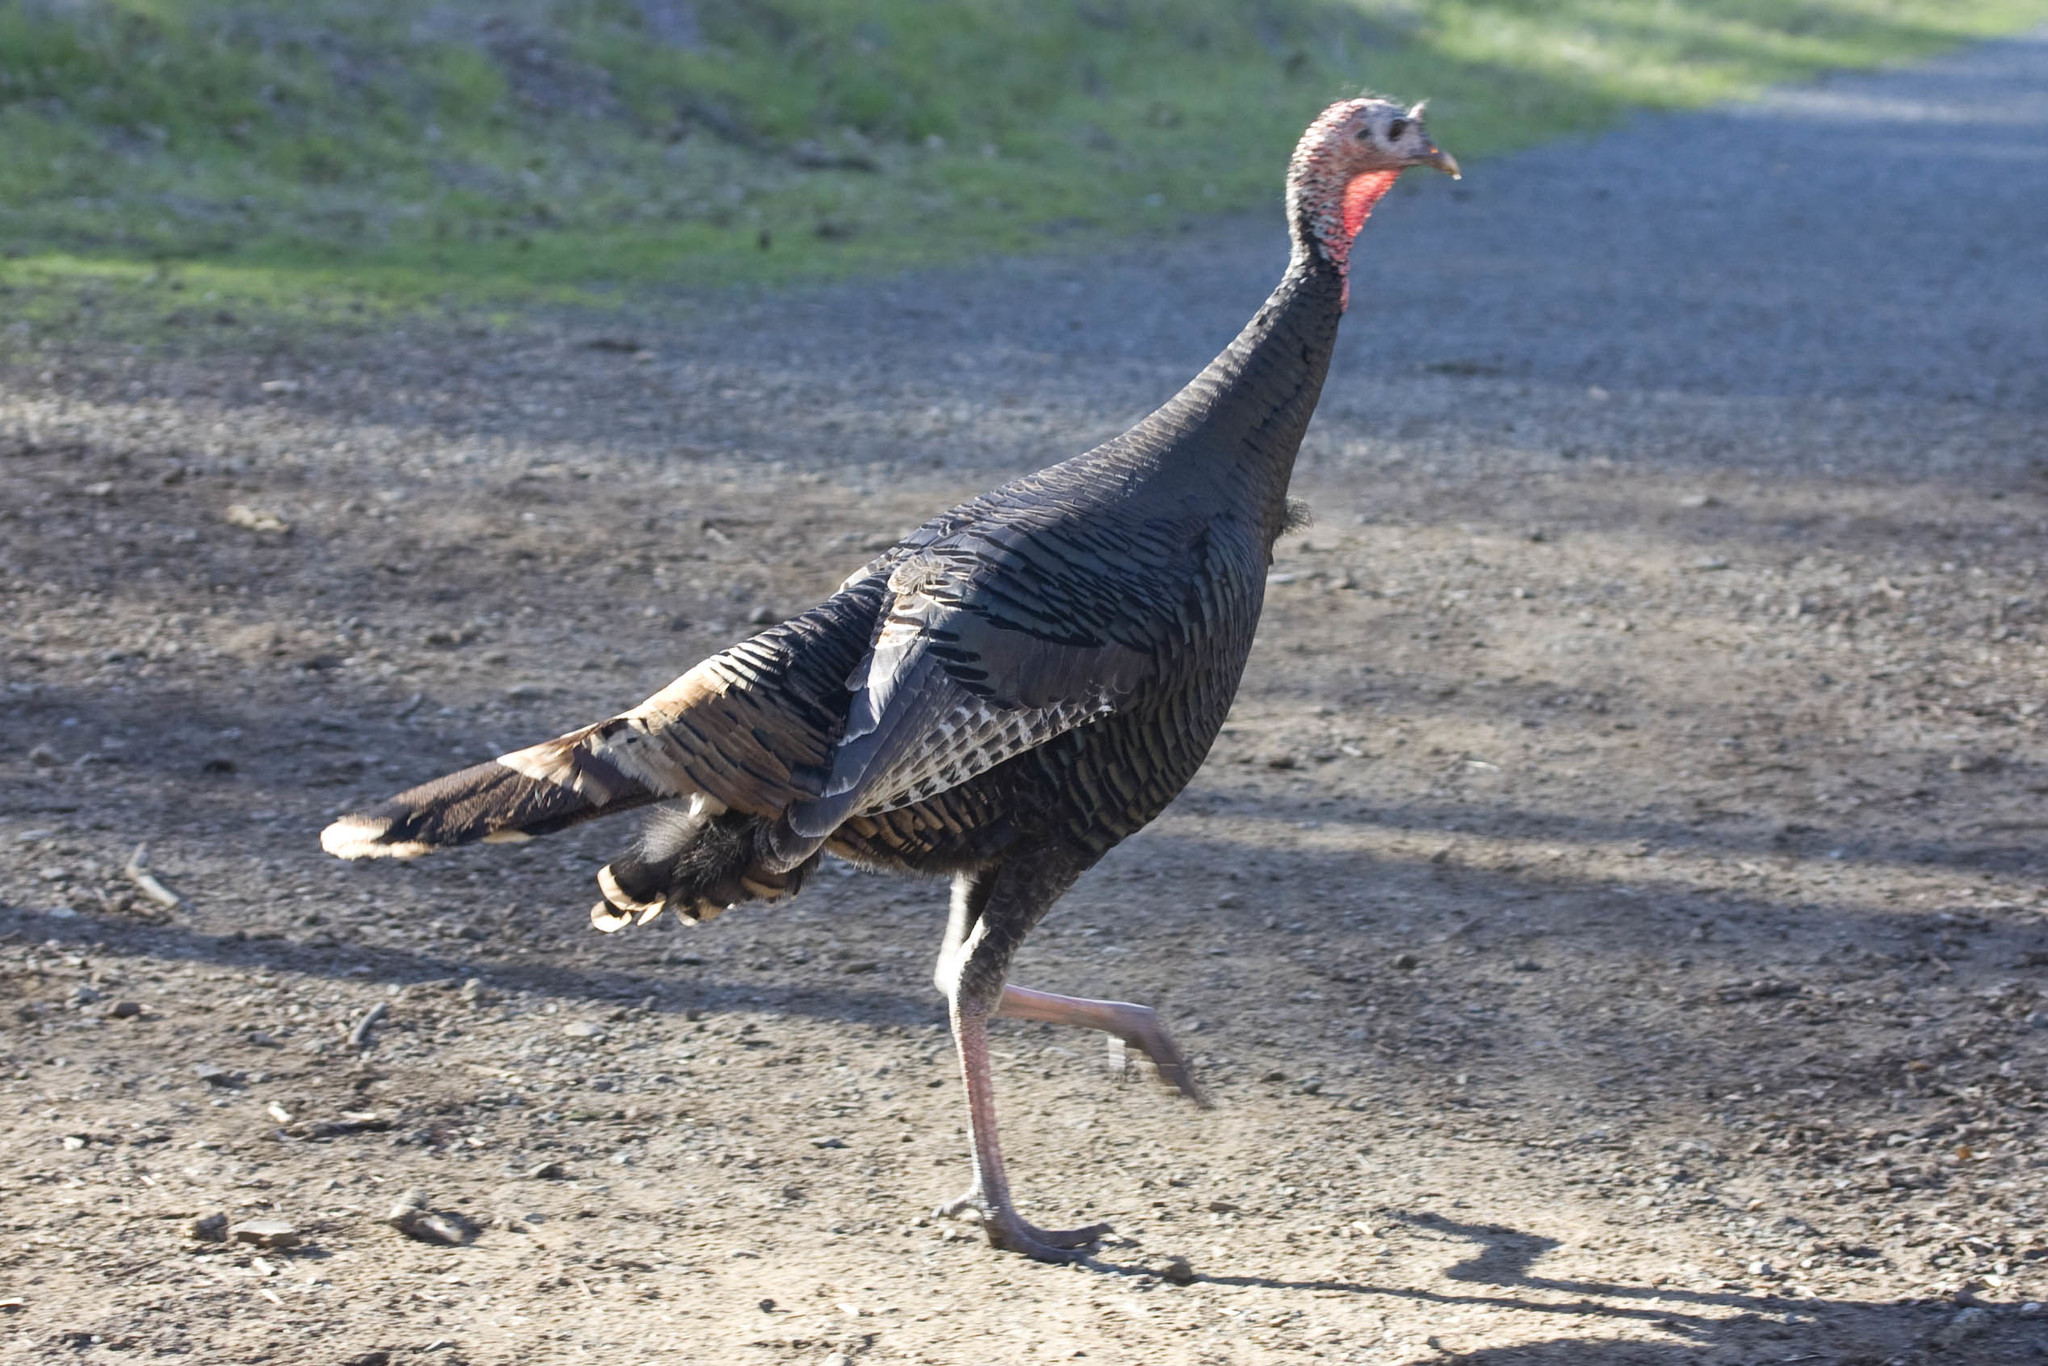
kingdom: Animalia
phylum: Chordata
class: Aves
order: Galliformes
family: Phasianidae
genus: Meleagris
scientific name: Meleagris gallopavo
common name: Wild turkey
